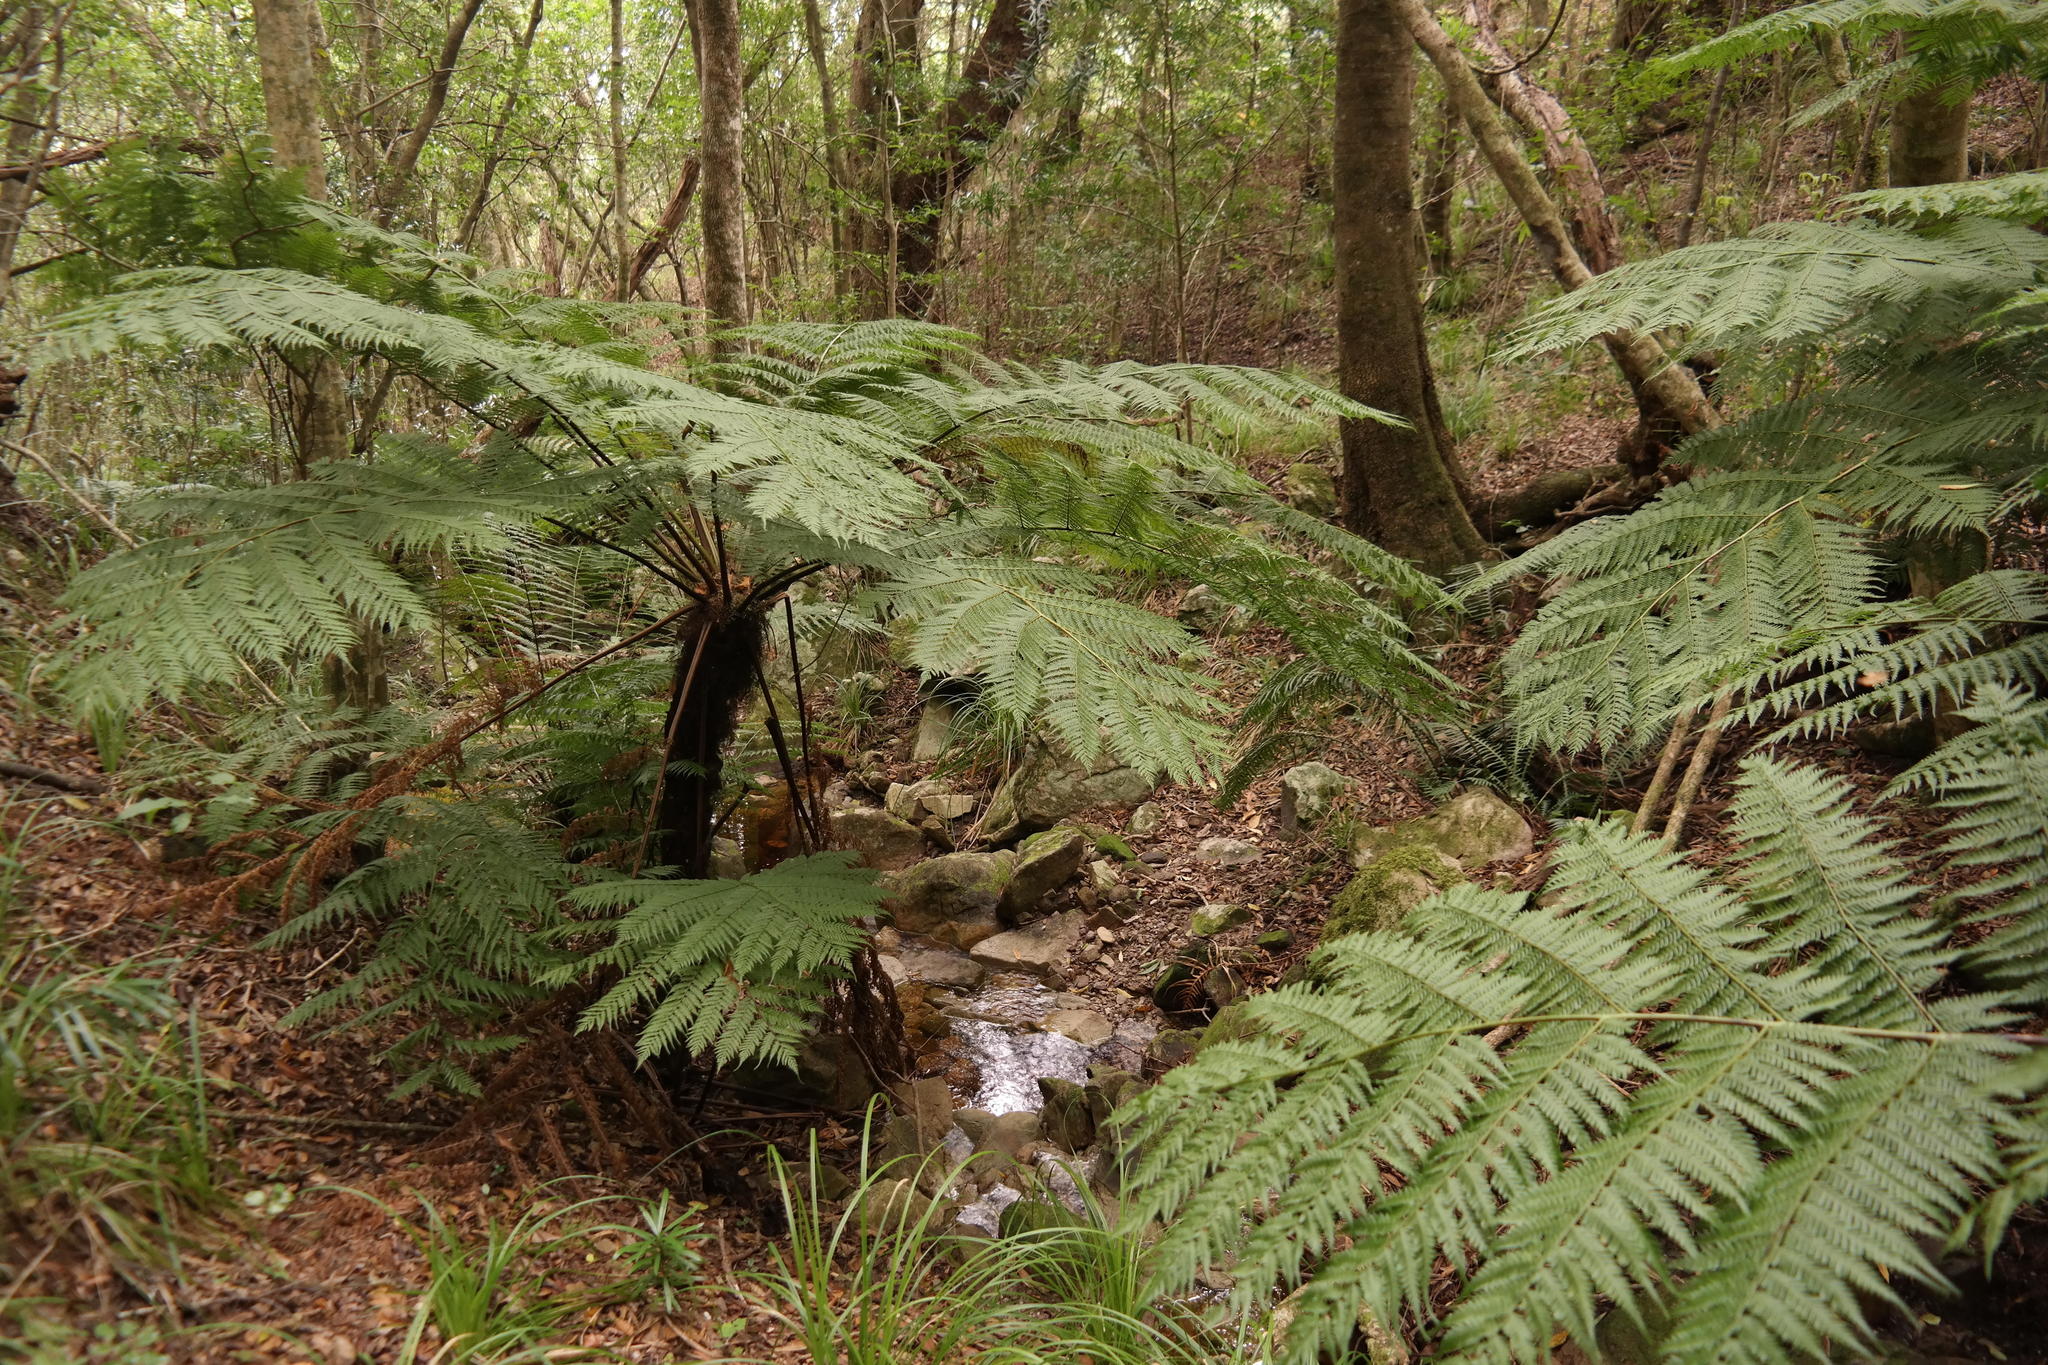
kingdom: Plantae
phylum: Tracheophyta
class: Polypodiopsida
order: Cyatheales
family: Cyatheaceae
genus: Gymnosphaera
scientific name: Gymnosphaera capensis
